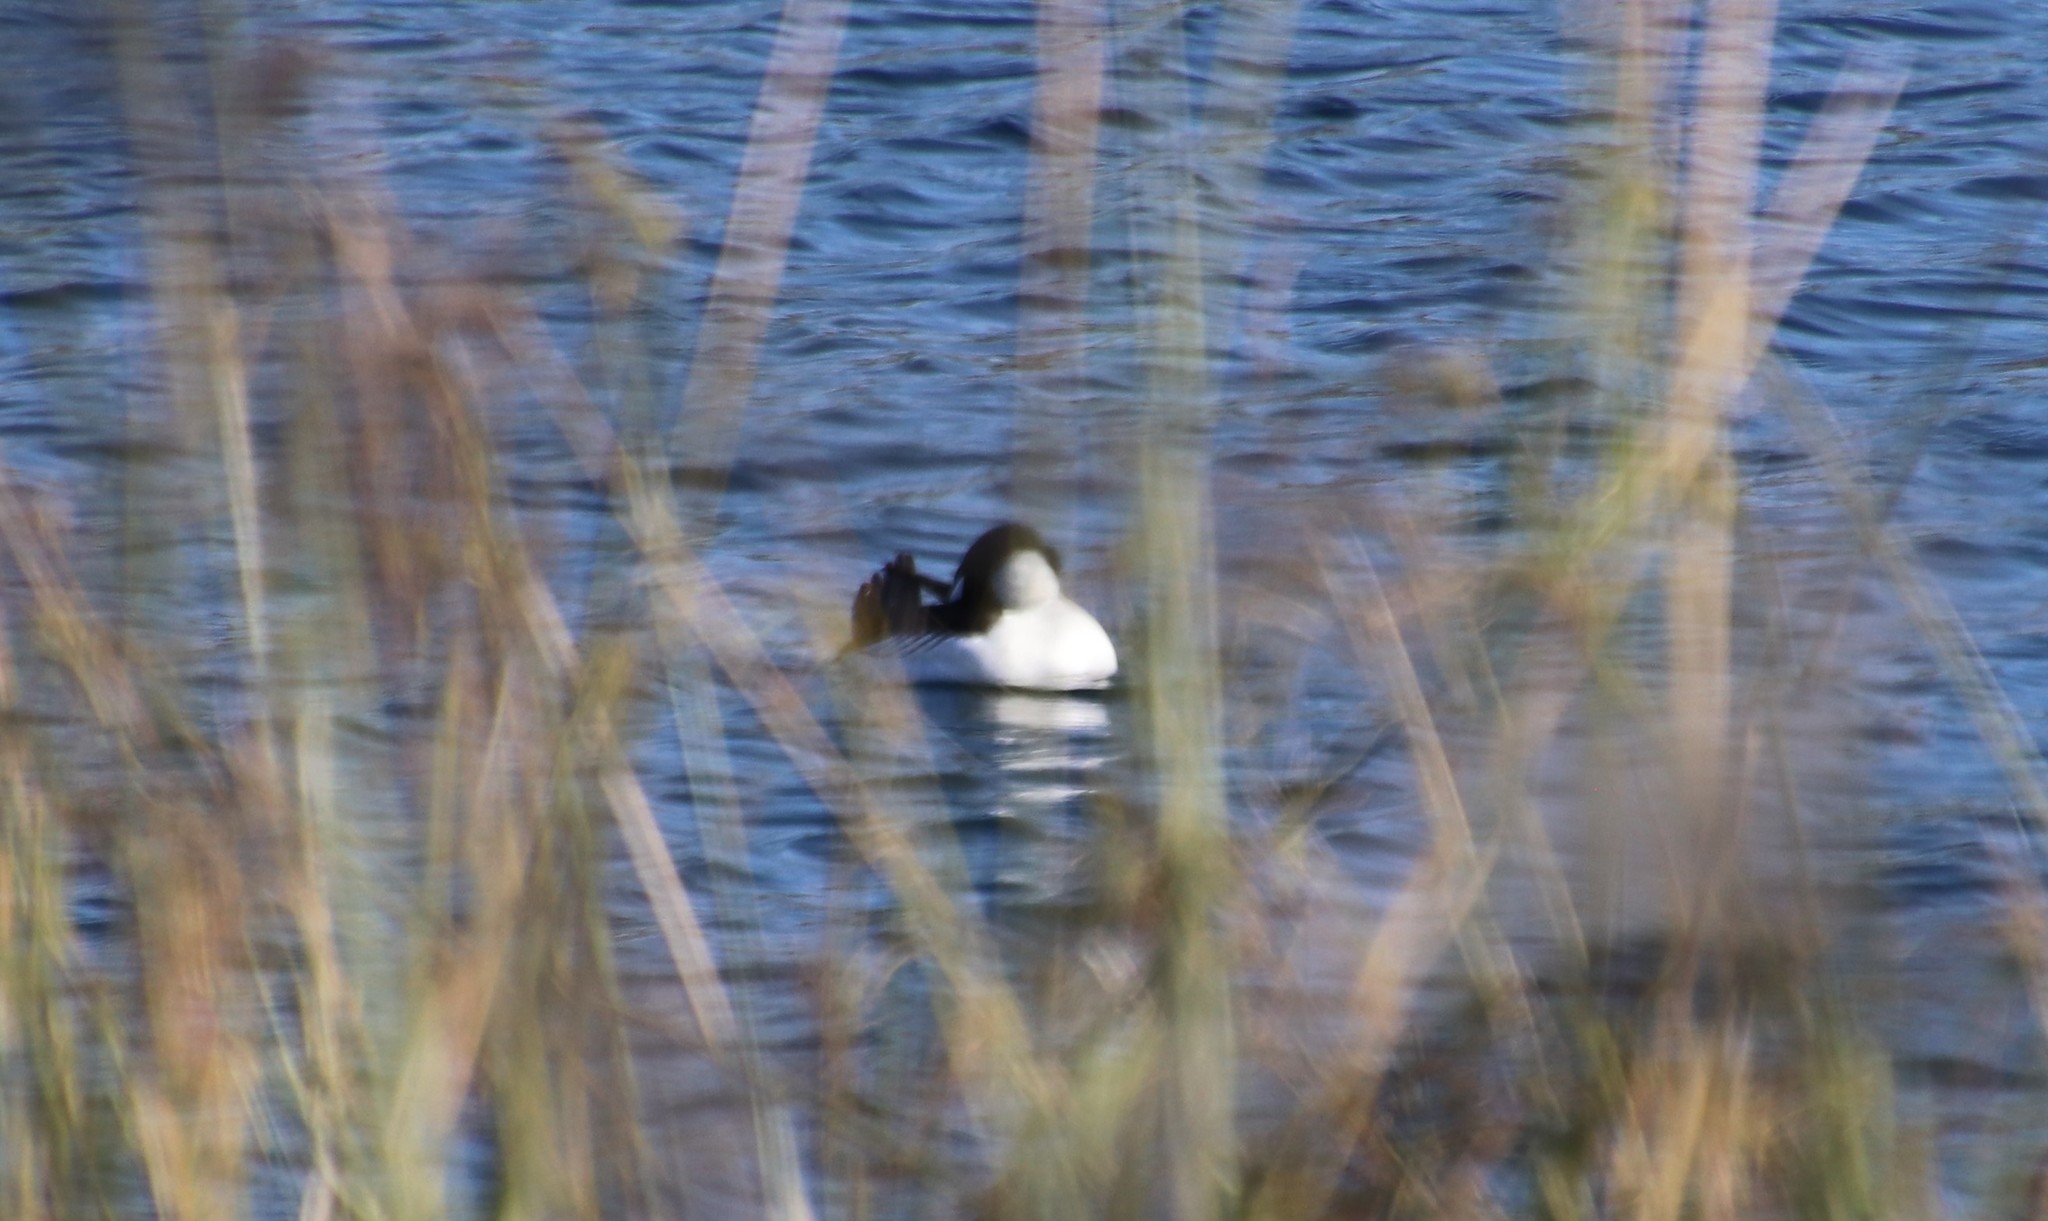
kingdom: Animalia
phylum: Chordata
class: Aves
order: Anseriformes
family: Anatidae
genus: Bucephala
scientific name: Bucephala clangula
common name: Common goldeneye
